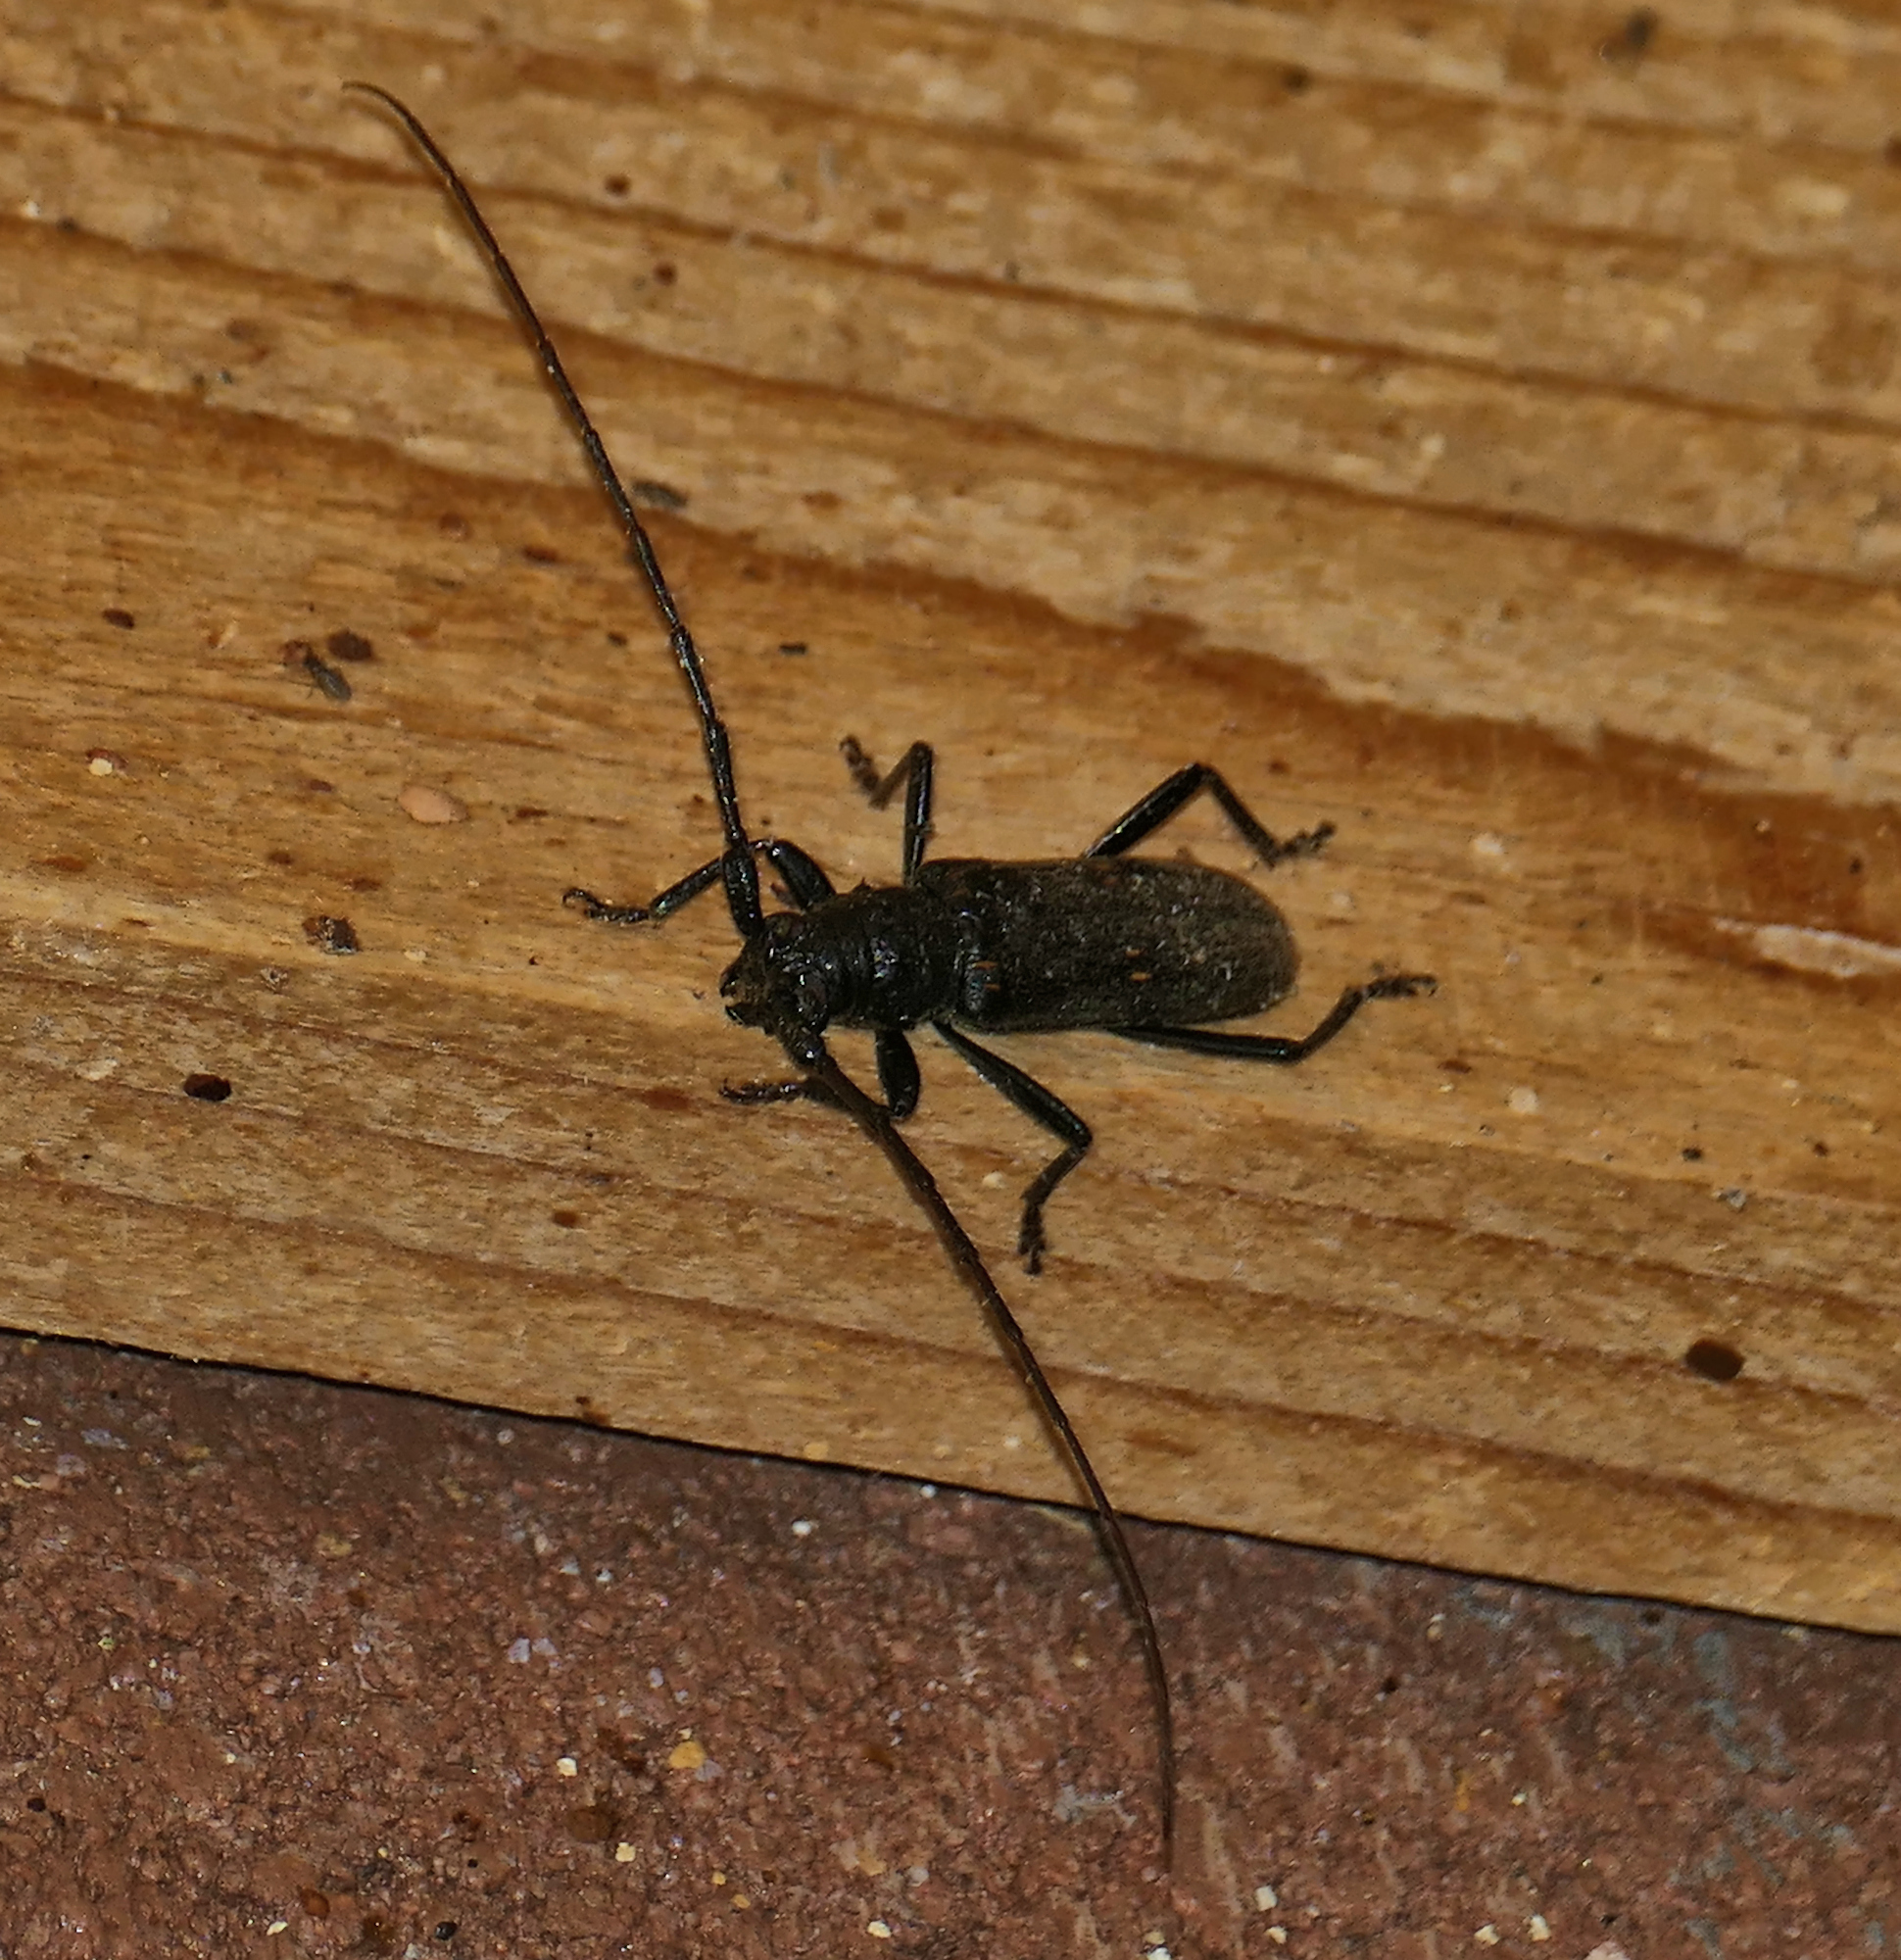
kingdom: Animalia
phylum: Arthropoda
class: Insecta
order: Coleoptera
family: Cerambycidae
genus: Susuacanga
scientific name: Susuacanga falli
